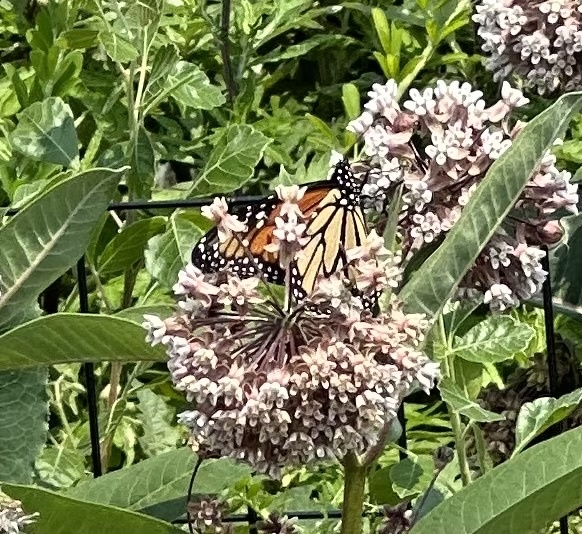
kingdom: Animalia
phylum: Arthropoda
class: Insecta
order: Lepidoptera
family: Nymphalidae
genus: Danaus
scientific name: Danaus plexippus
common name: Monarch
